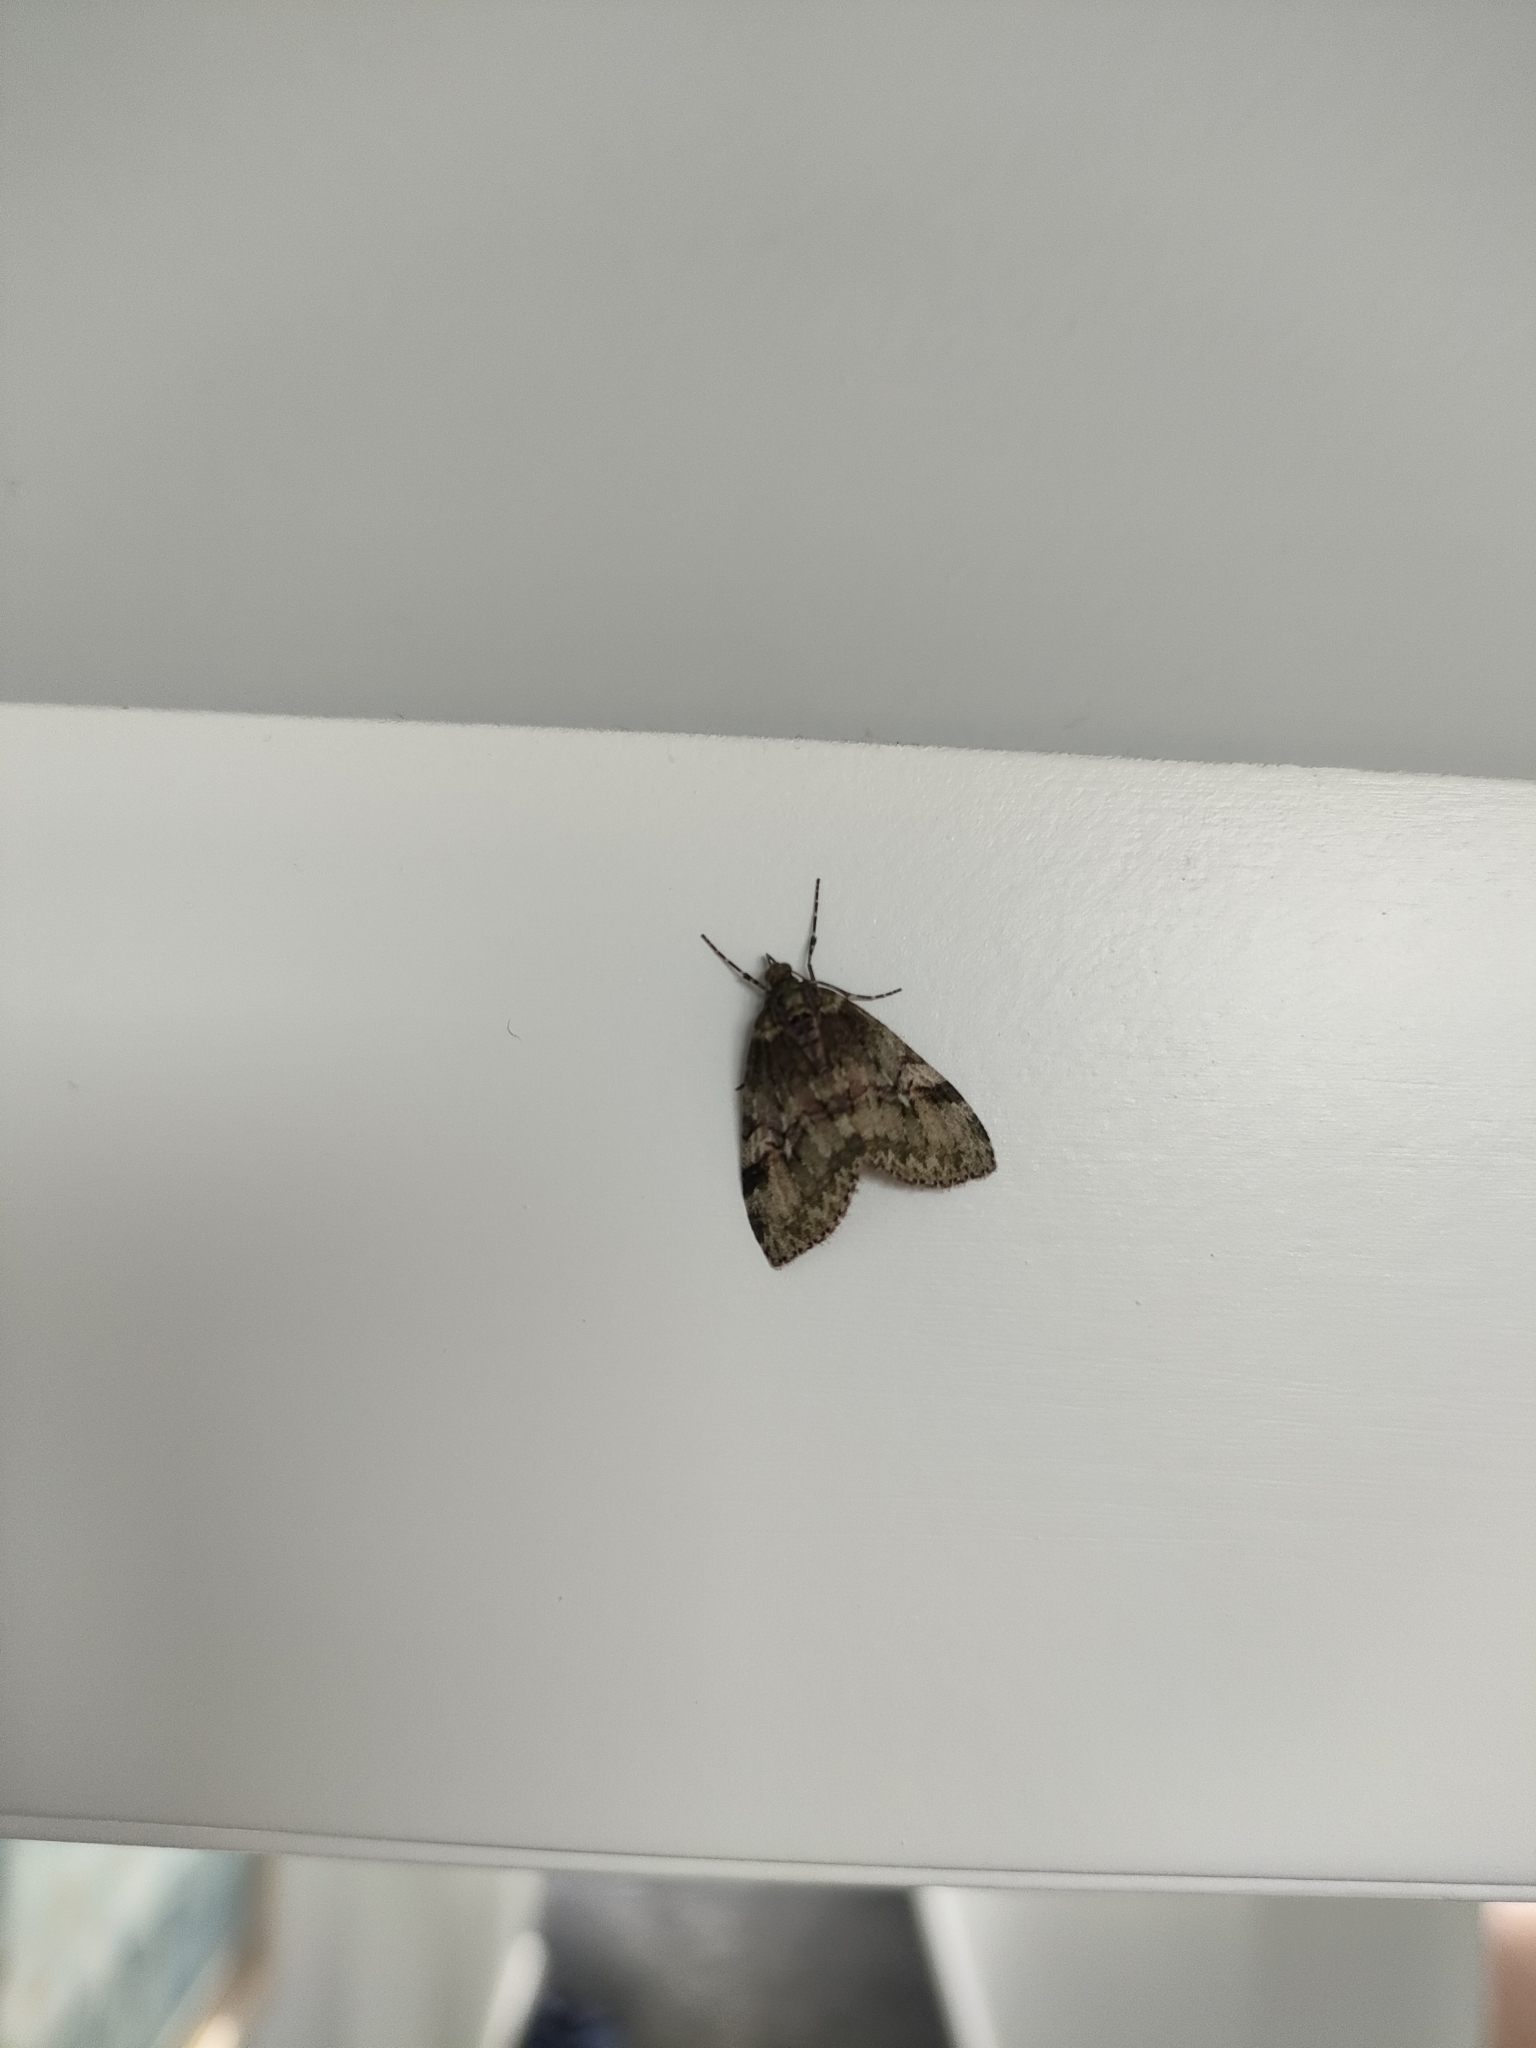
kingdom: Animalia
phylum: Arthropoda
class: Insecta
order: Lepidoptera
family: Geometridae
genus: Tatosoma
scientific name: Tatosoma topea
